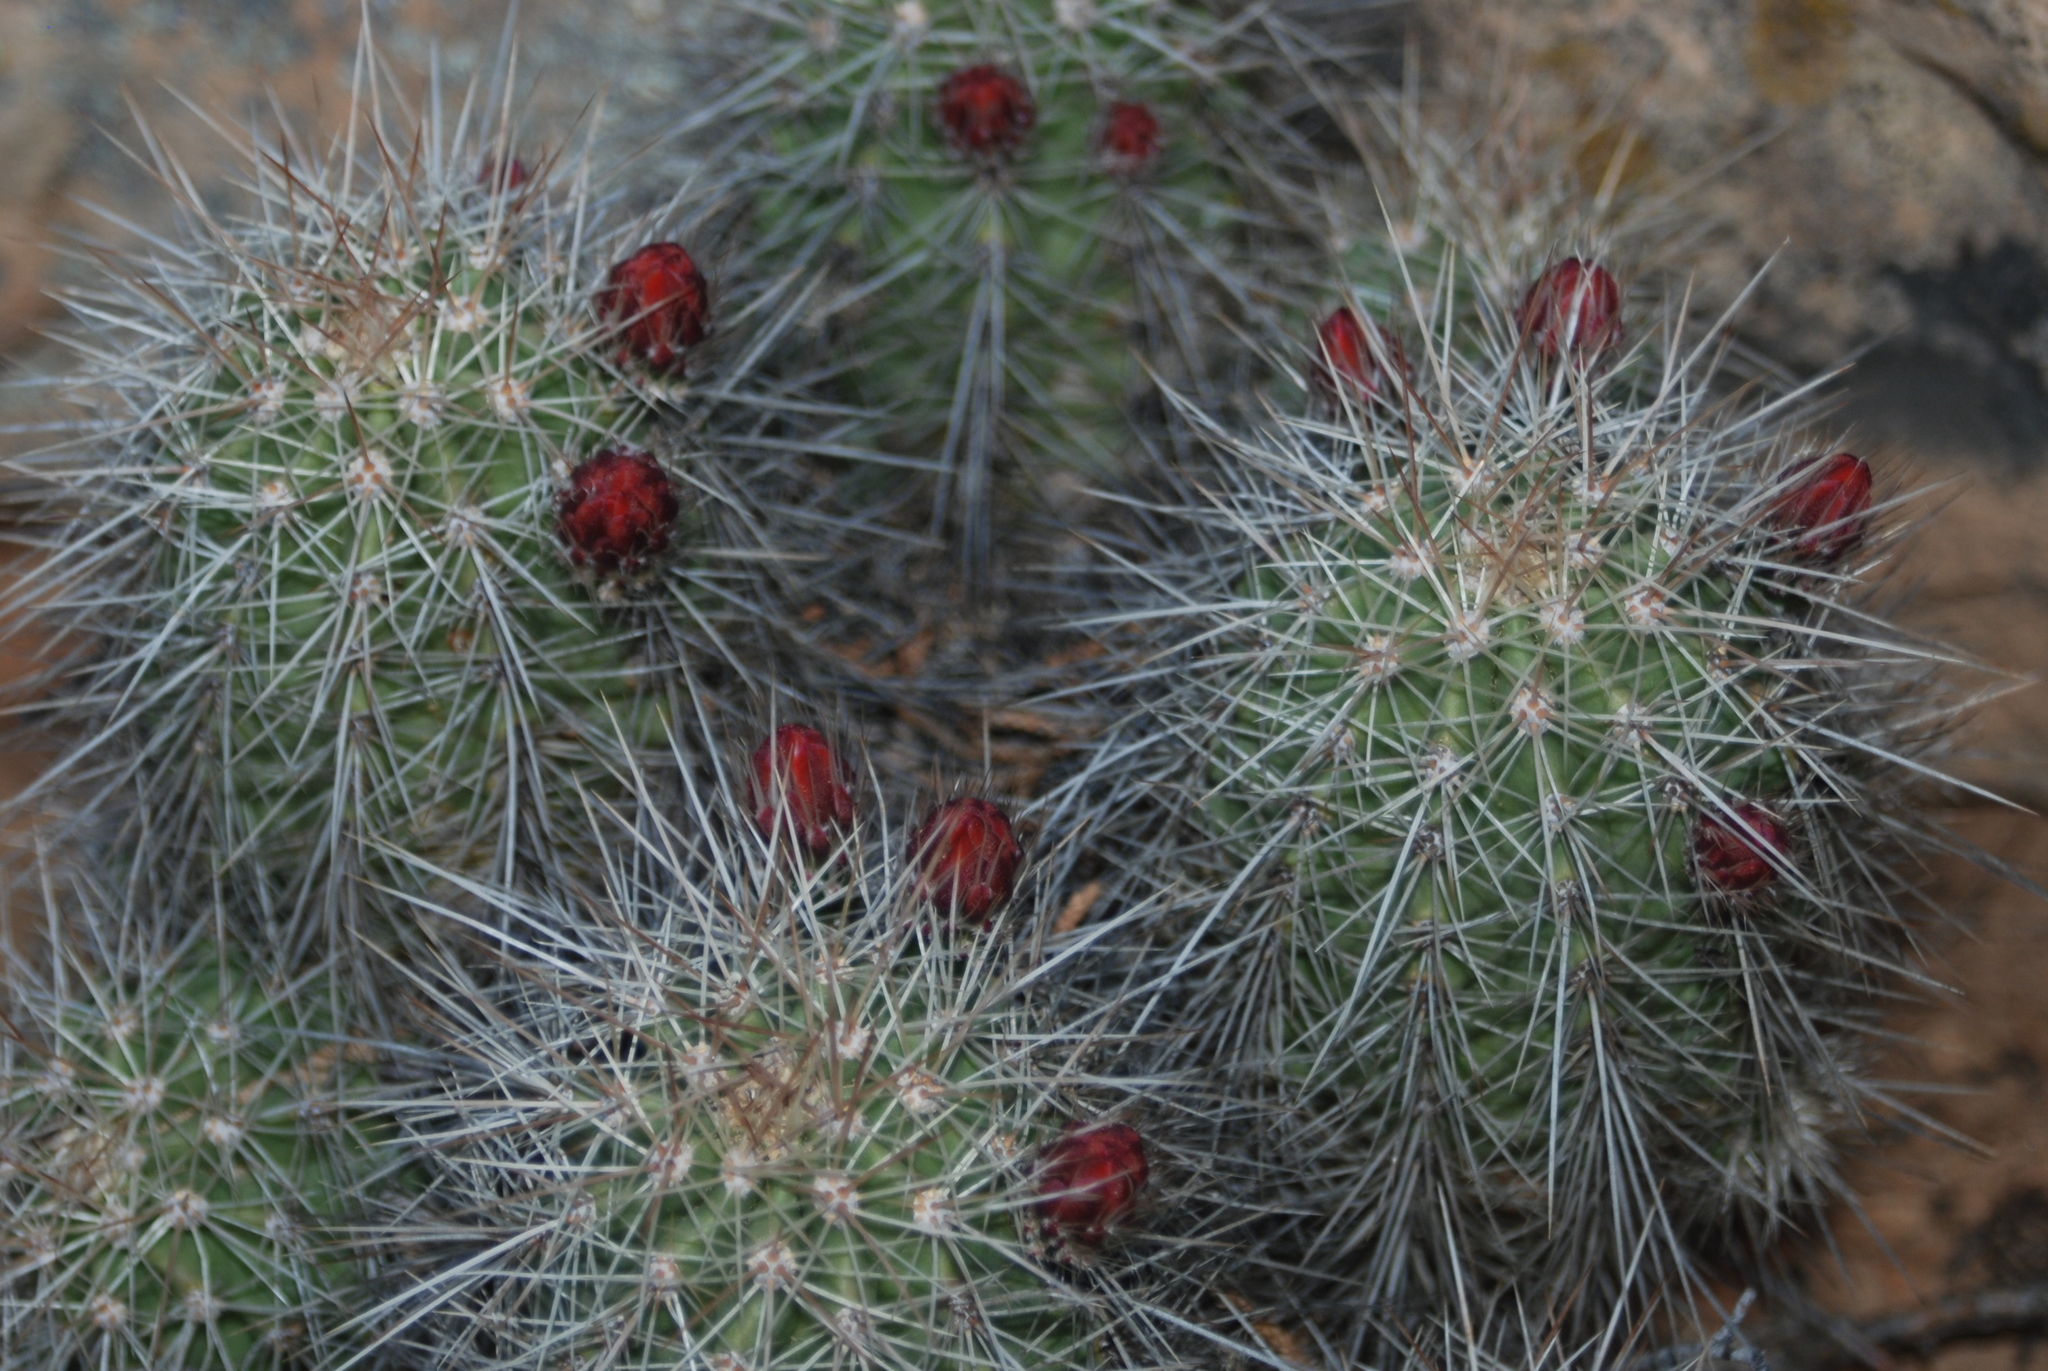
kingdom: Plantae
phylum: Tracheophyta
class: Magnoliopsida
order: Caryophyllales
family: Cactaceae
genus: Echinocereus
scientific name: Echinocereus coccineus
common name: Scarlet hedgehog cactus
